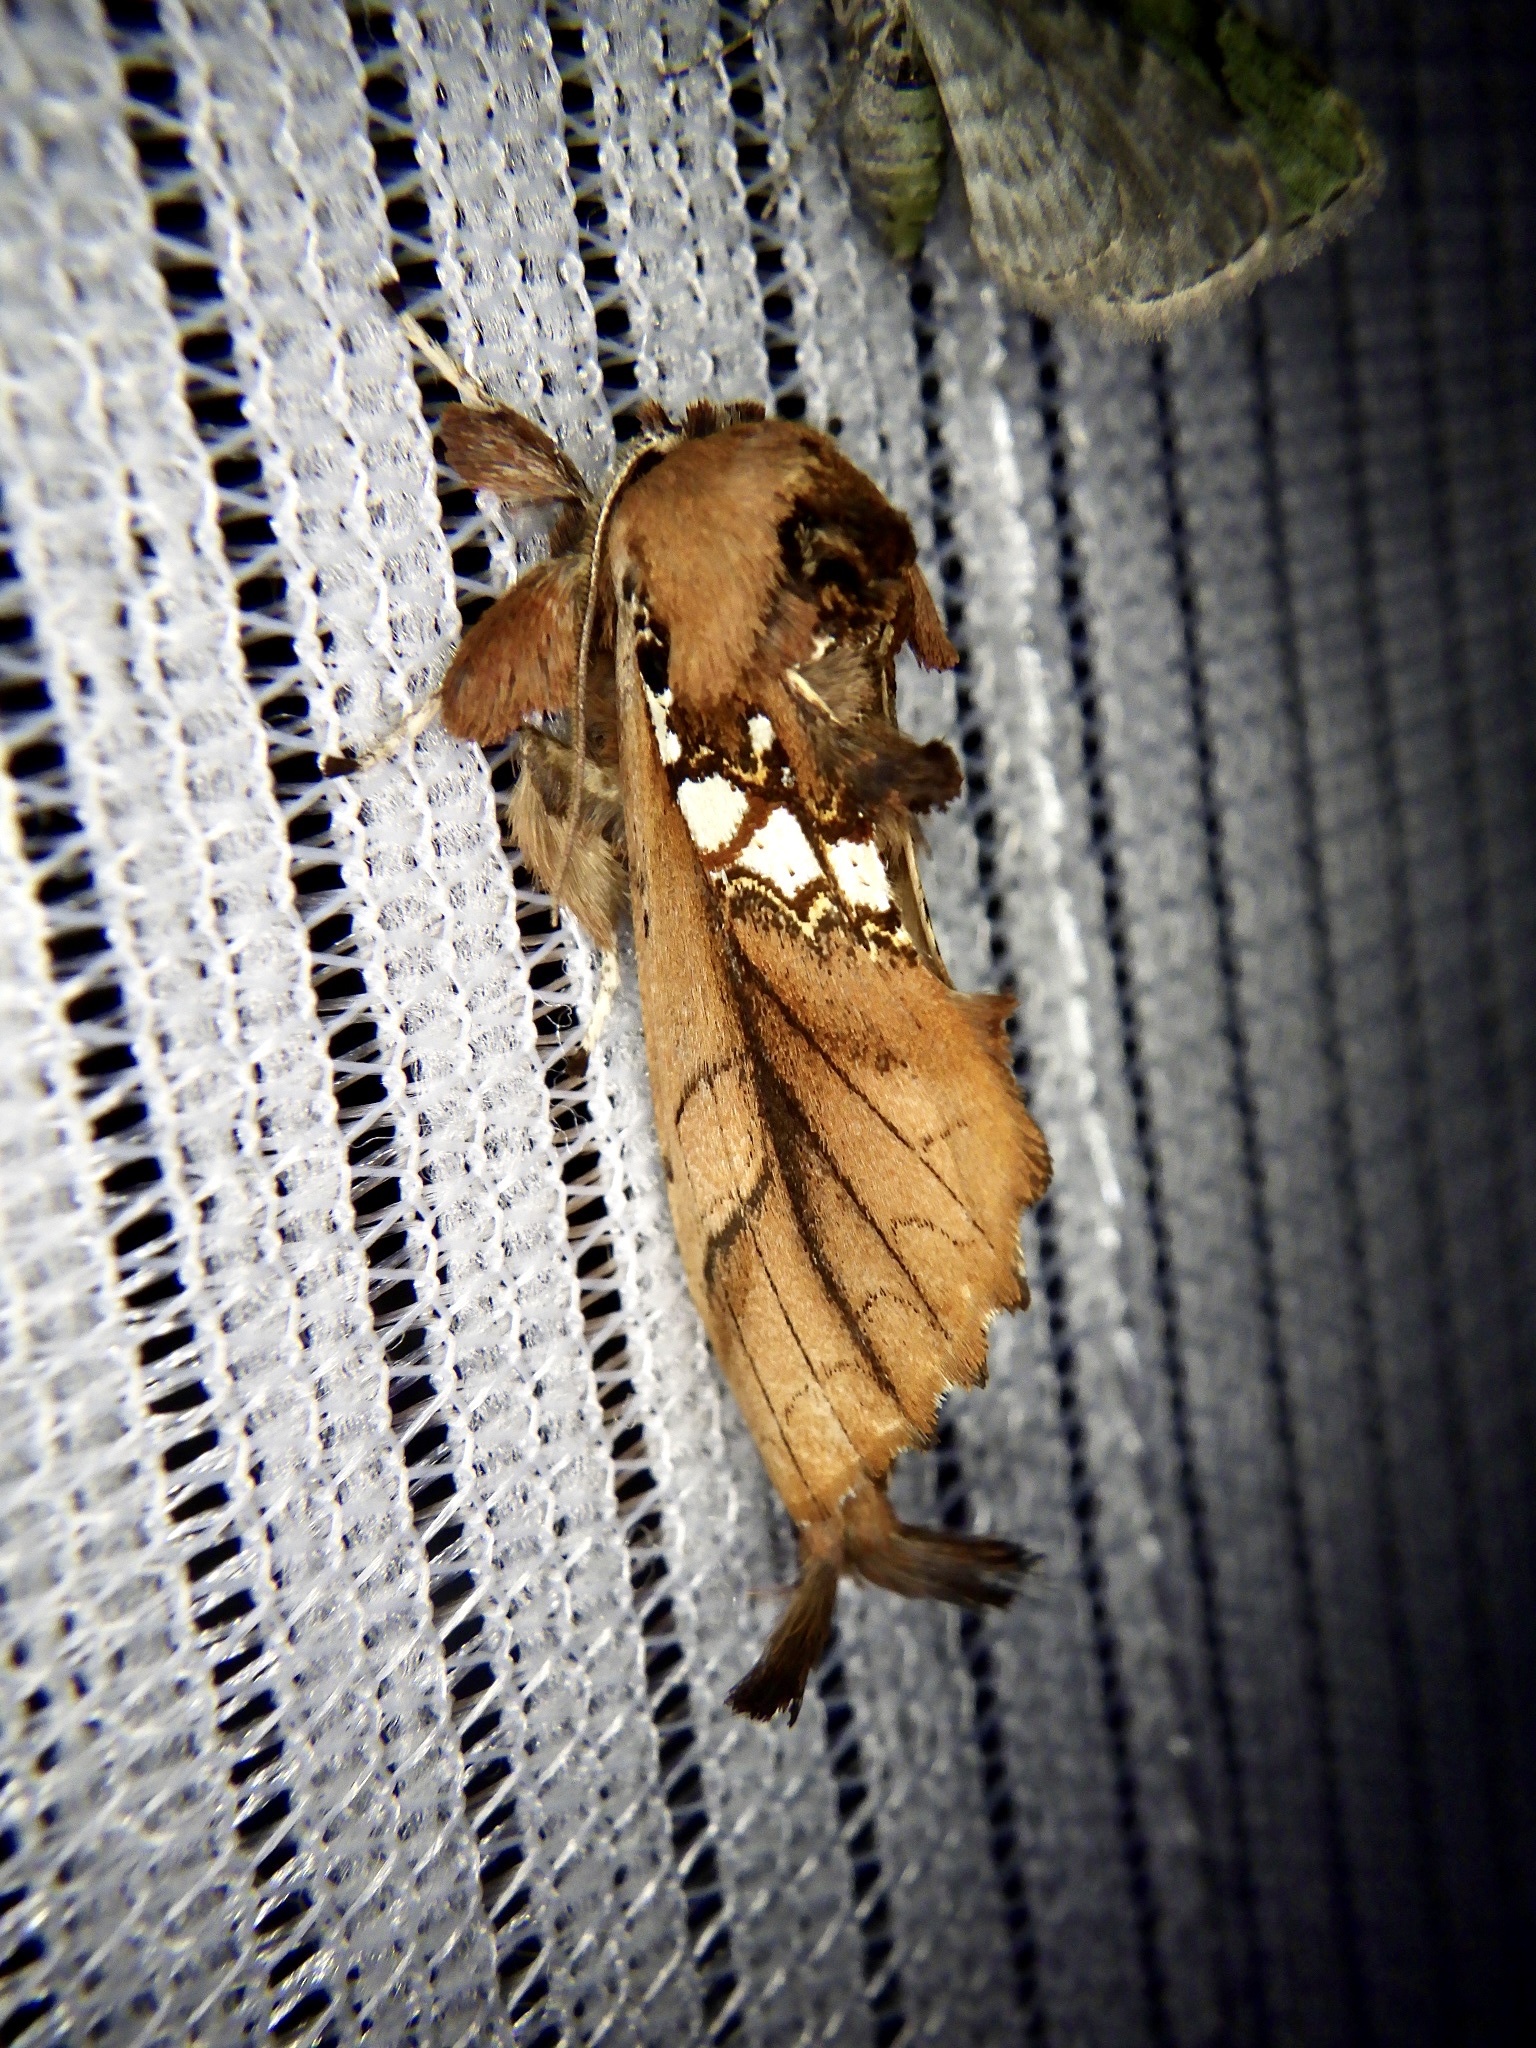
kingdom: Animalia
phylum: Arthropoda
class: Insecta
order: Lepidoptera
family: Notodontidae
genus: Spatalia
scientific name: Spatalia dives
